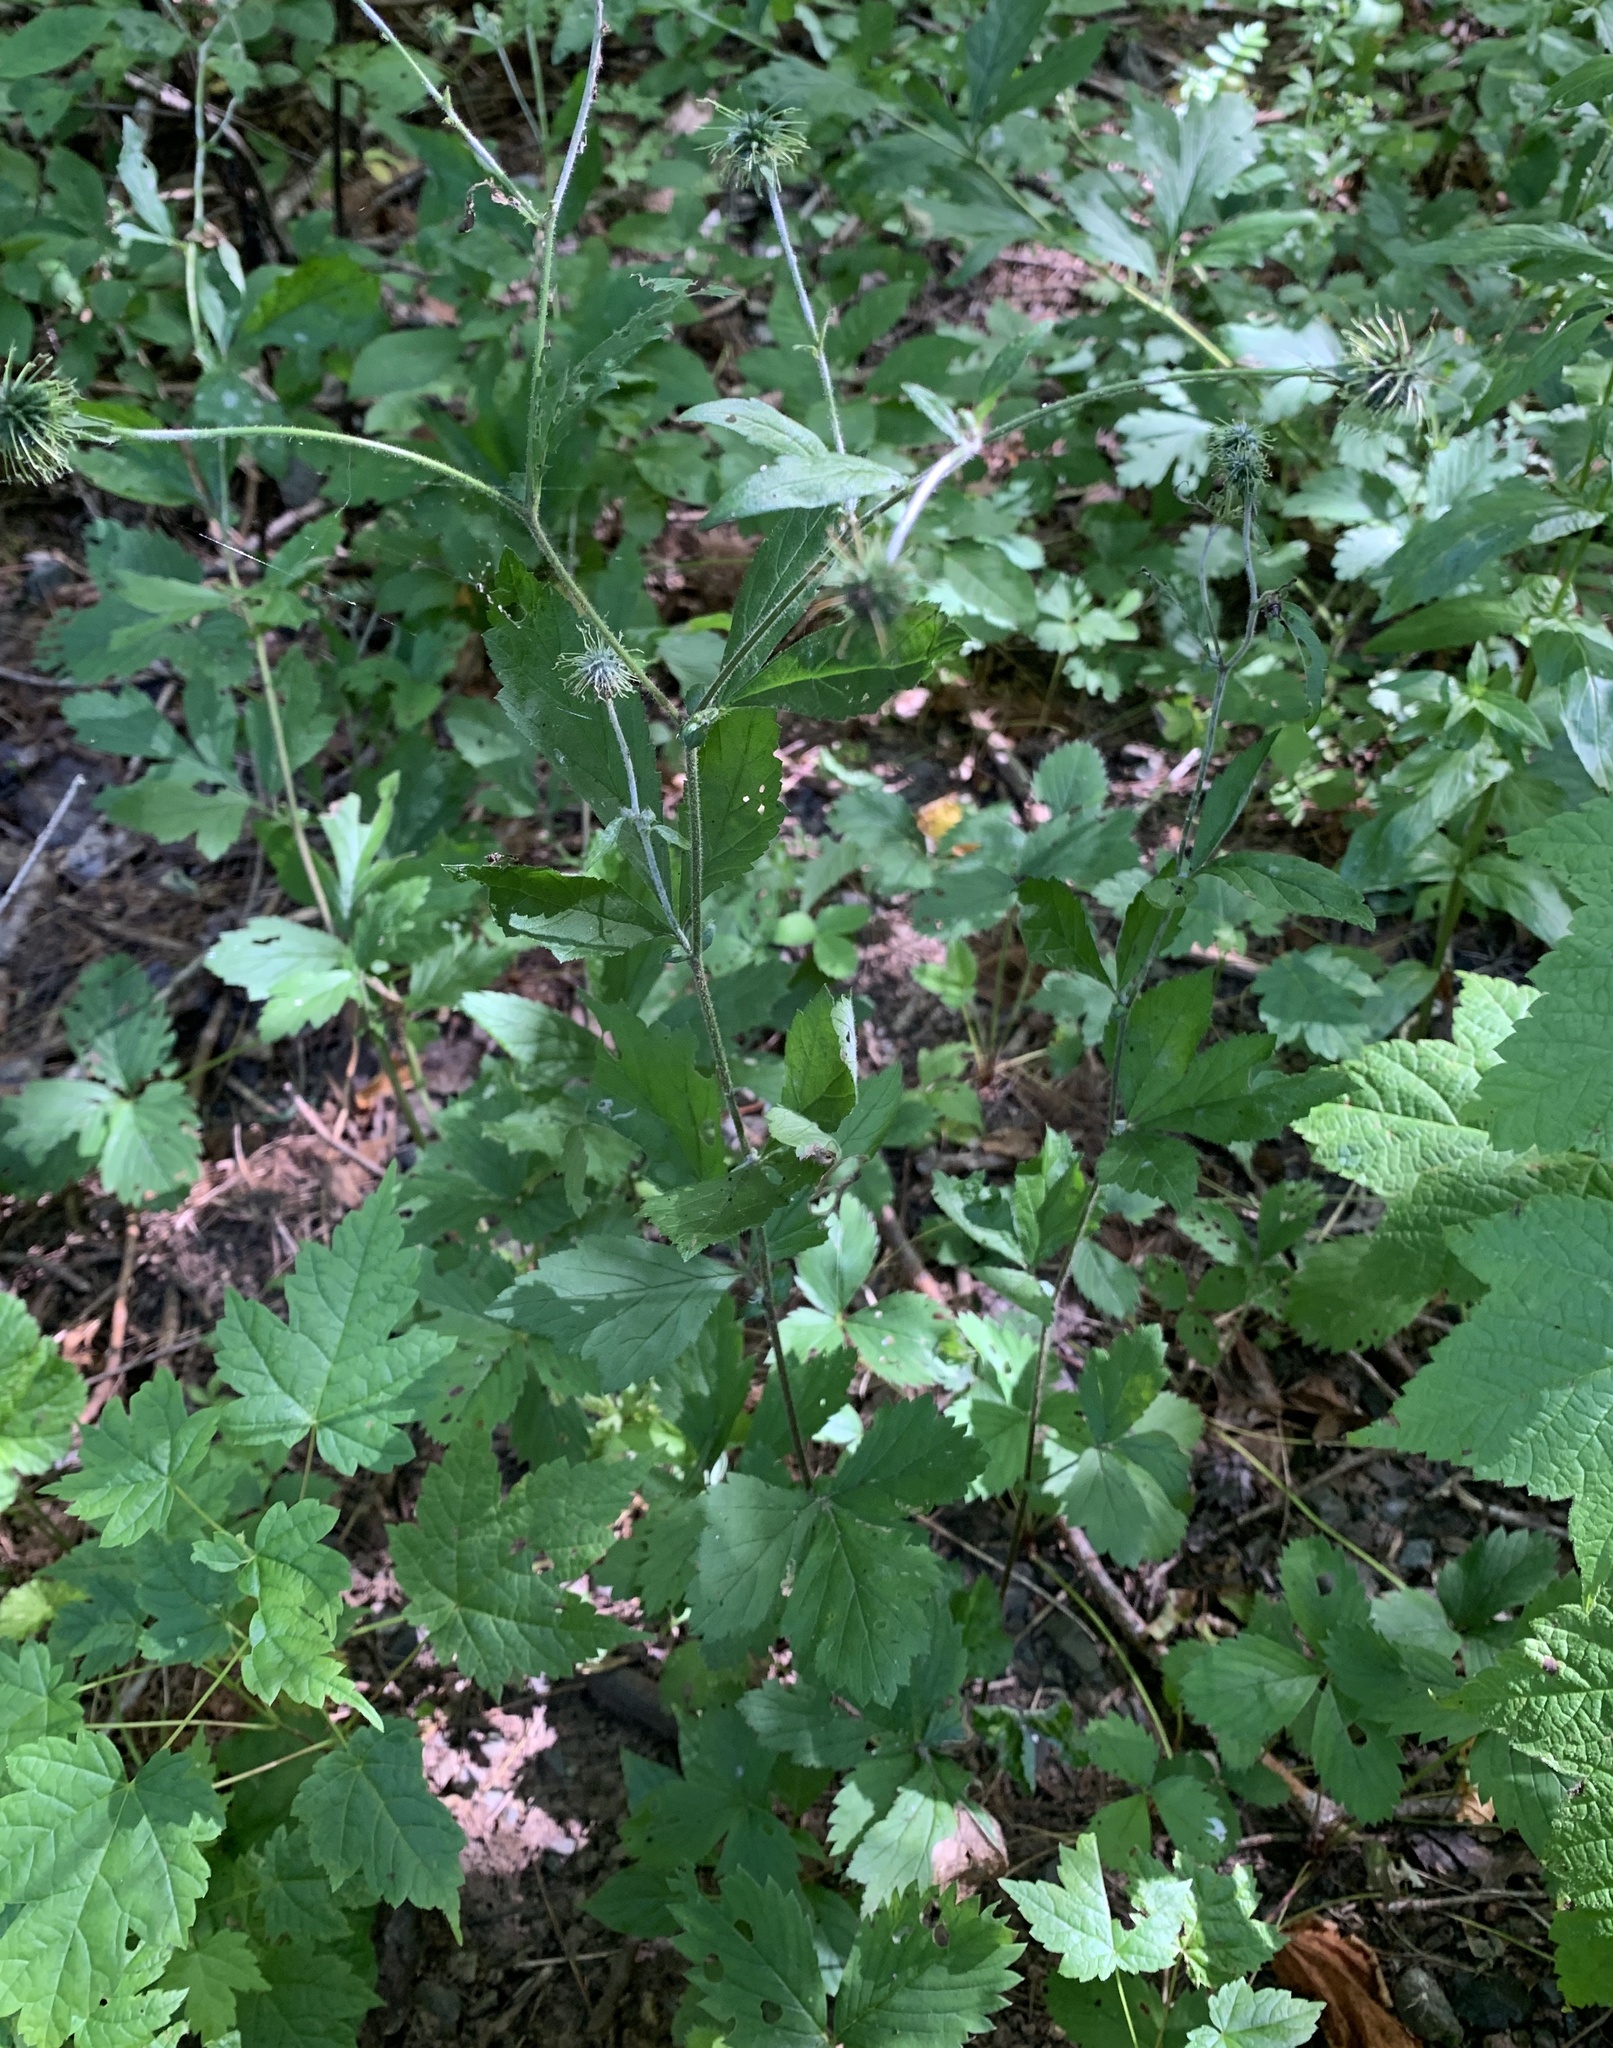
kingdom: Plantae
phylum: Tracheophyta
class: Magnoliopsida
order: Rosales
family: Rosaceae
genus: Geum
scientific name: Geum canadense
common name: White avens
